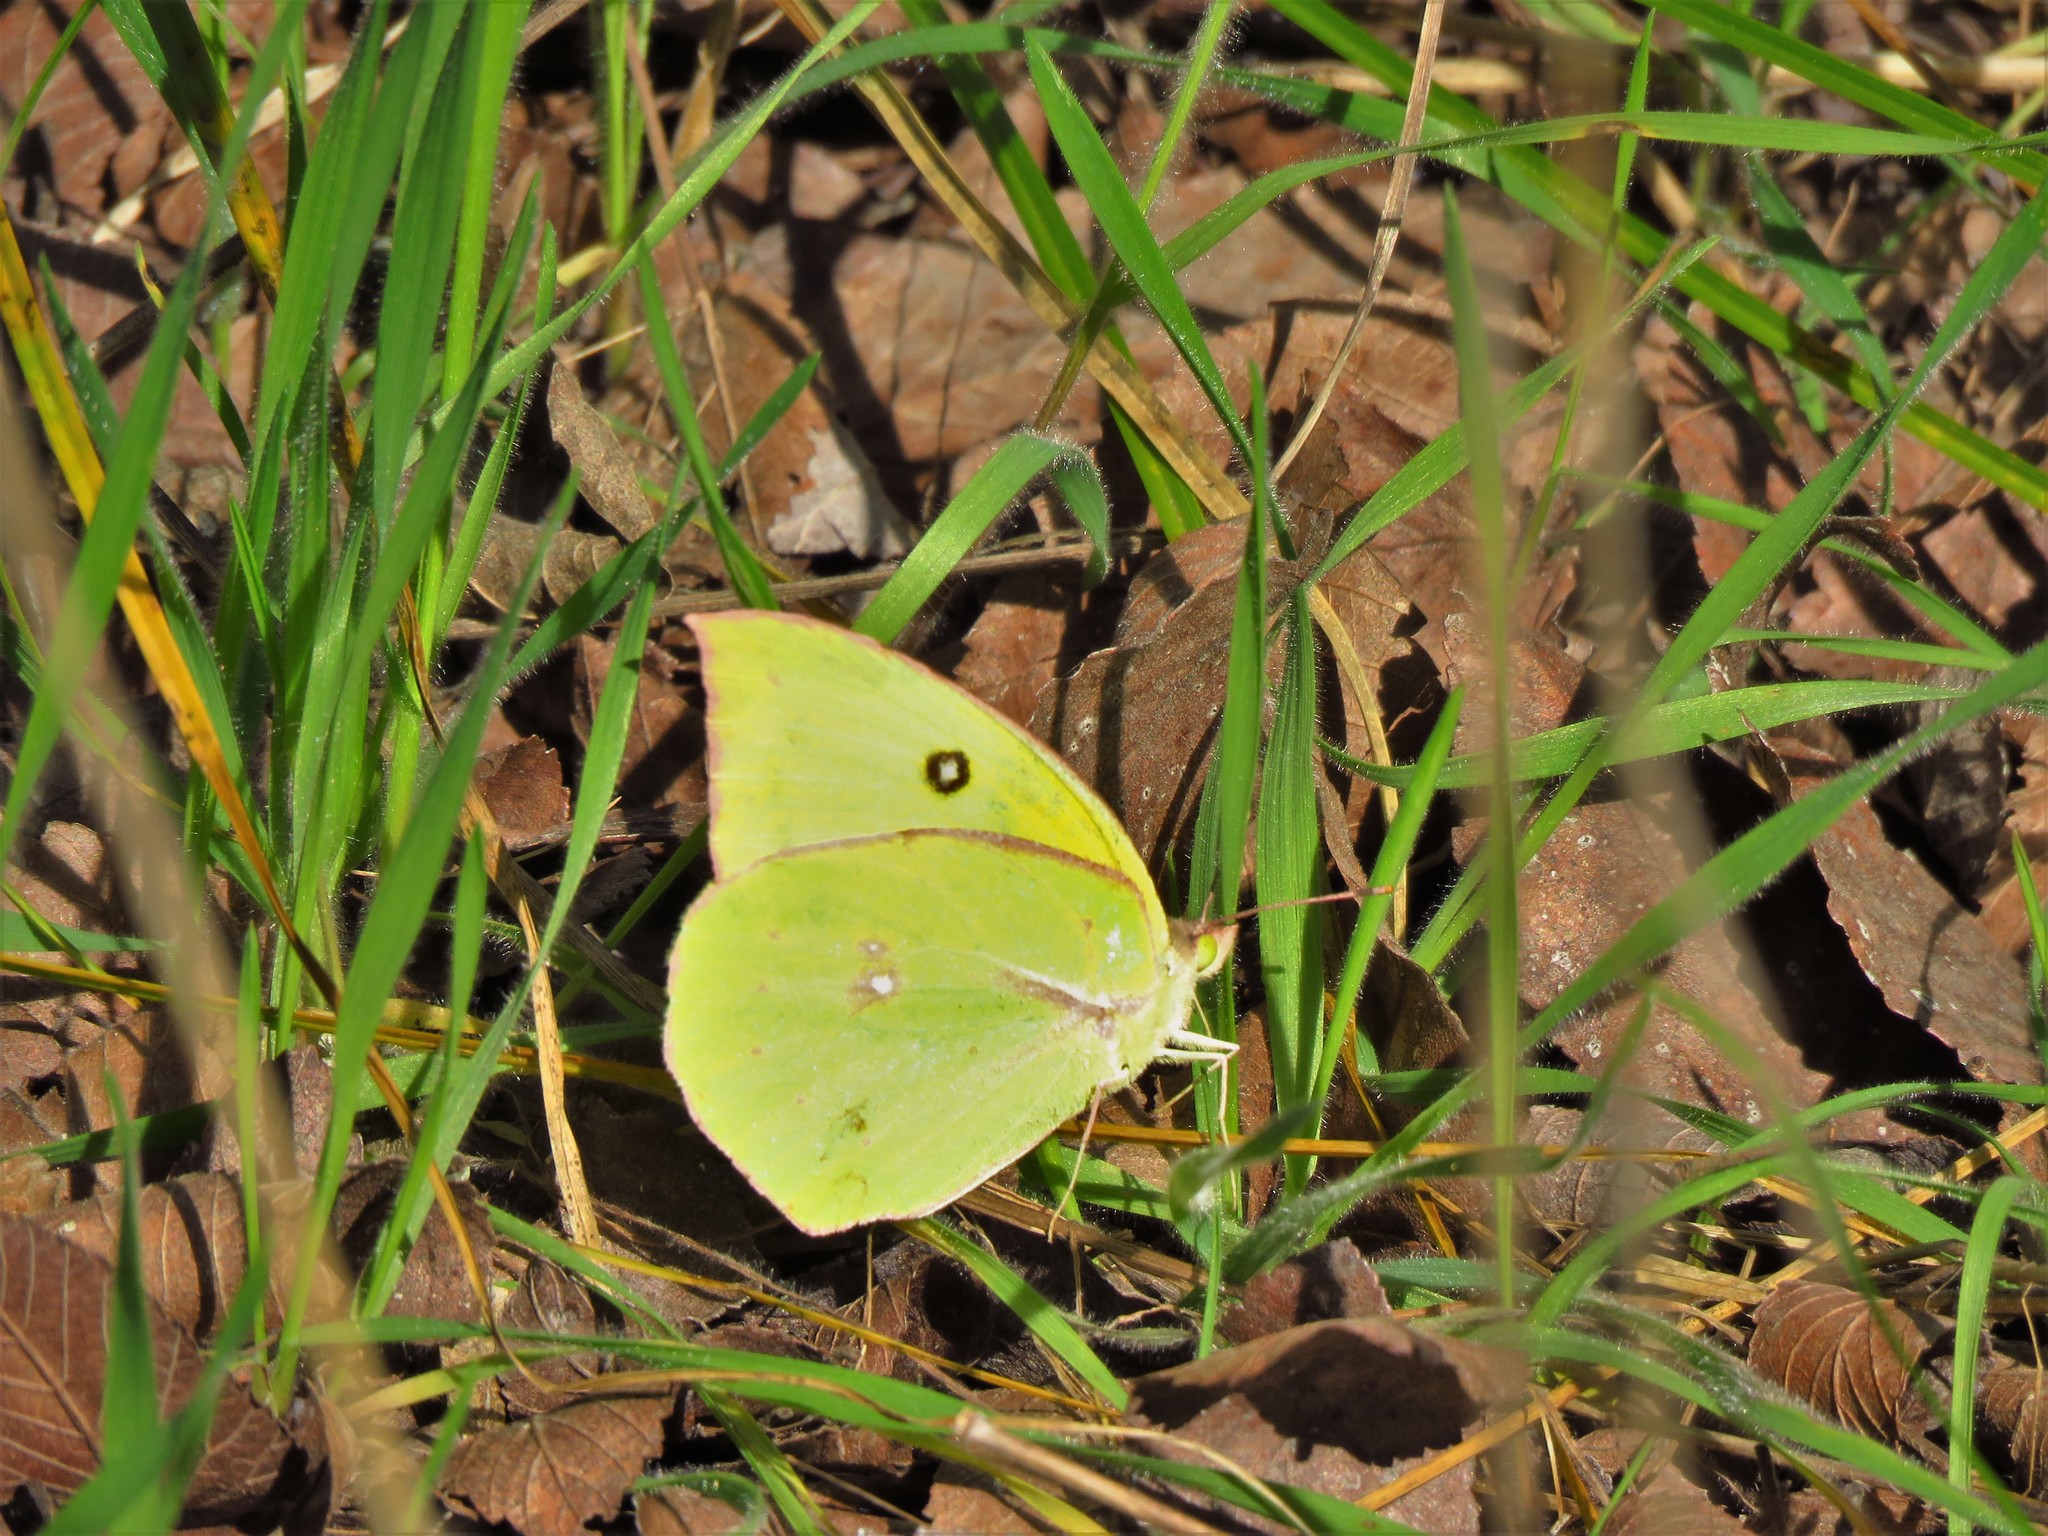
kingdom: Animalia
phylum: Arthropoda
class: Insecta
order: Lepidoptera
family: Pieridae
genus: Zerene
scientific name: Zerene cesonia
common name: Southern dogface
